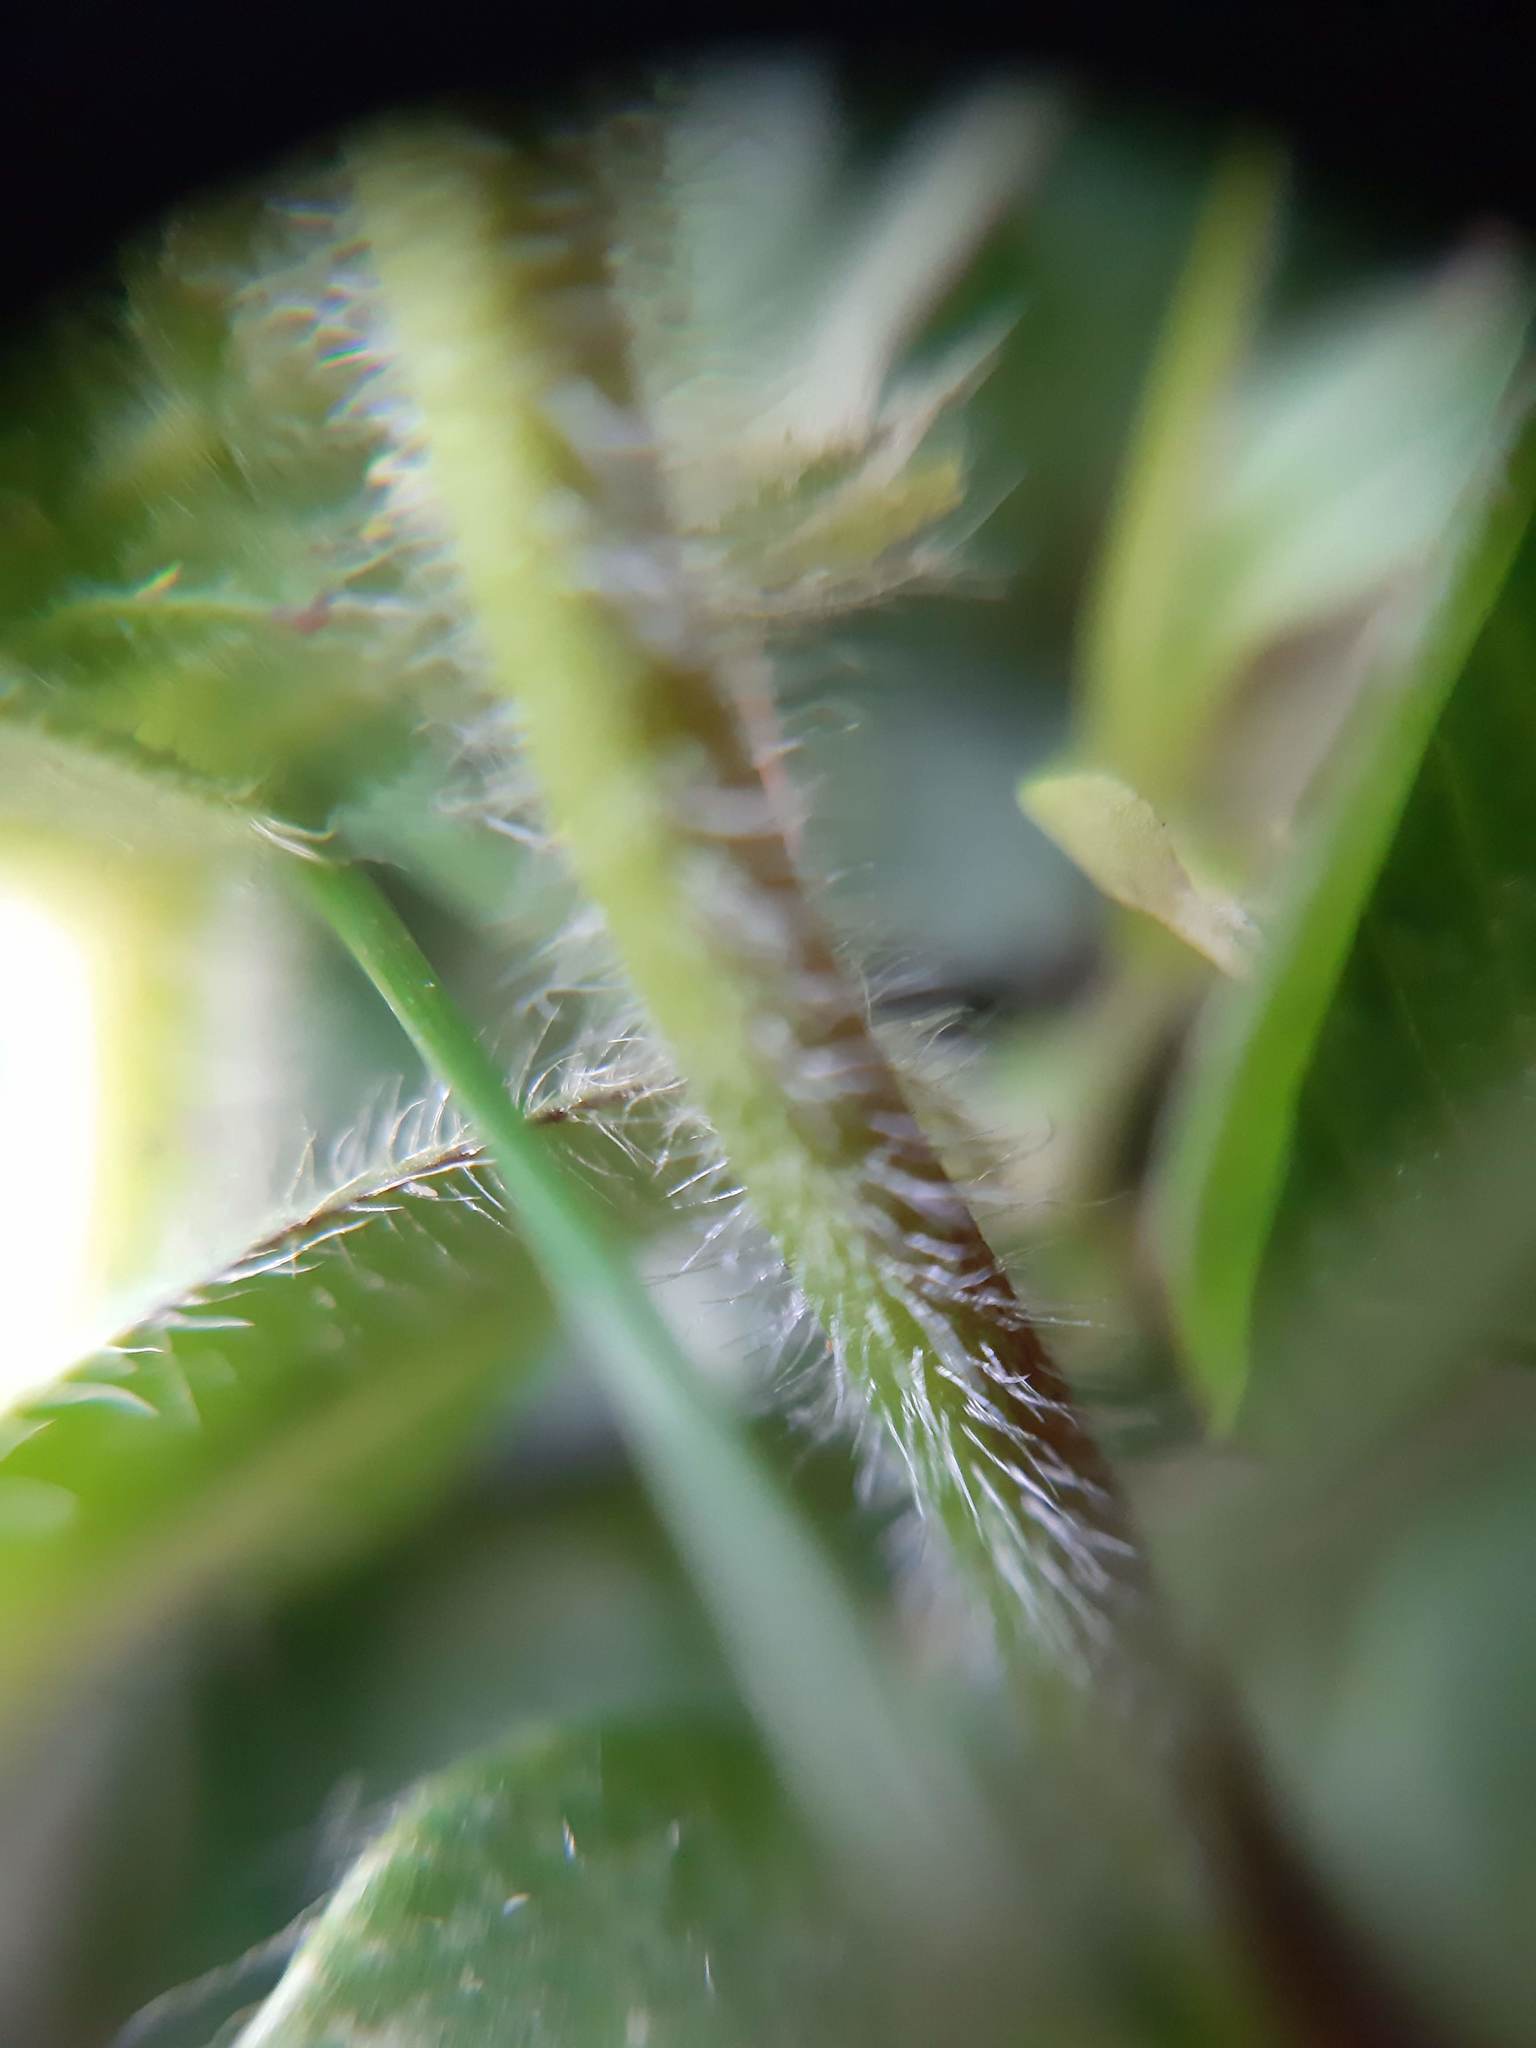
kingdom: Plantae
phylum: Tracheophyta
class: Magnoliopsida
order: Caryophyllales
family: Caryophyllaceae
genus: Cerastium
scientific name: Cerastium fontanum
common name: Common mouse-ear
